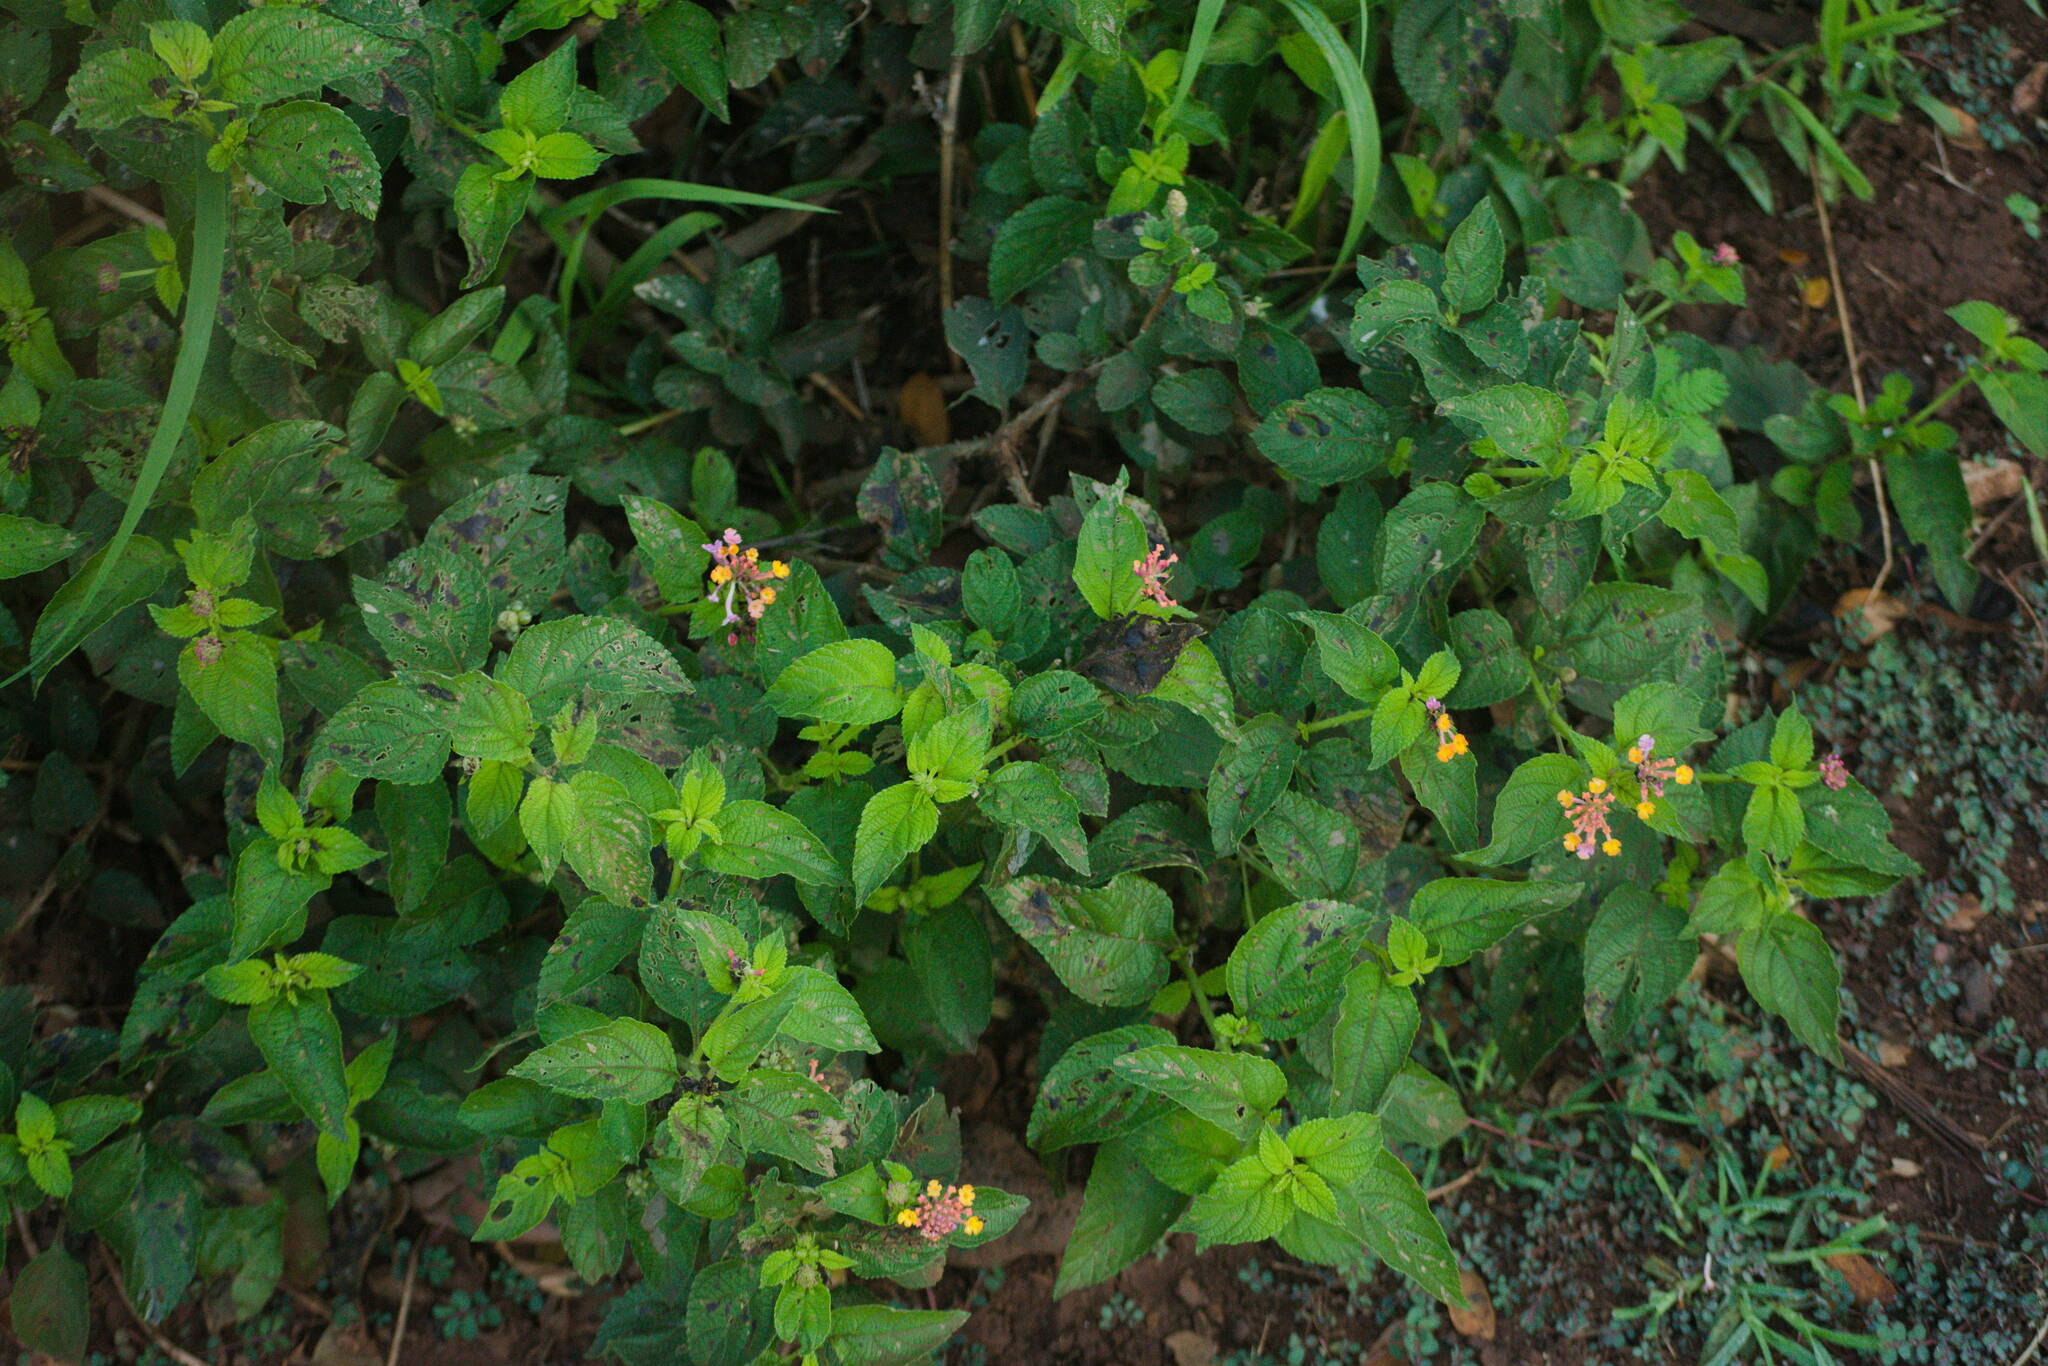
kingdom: Plantae
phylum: Tracheophyta
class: Magnoliopsida
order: Lamiales
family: Verbenaceae
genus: Lantana
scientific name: Lantana camara
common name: Lantana
